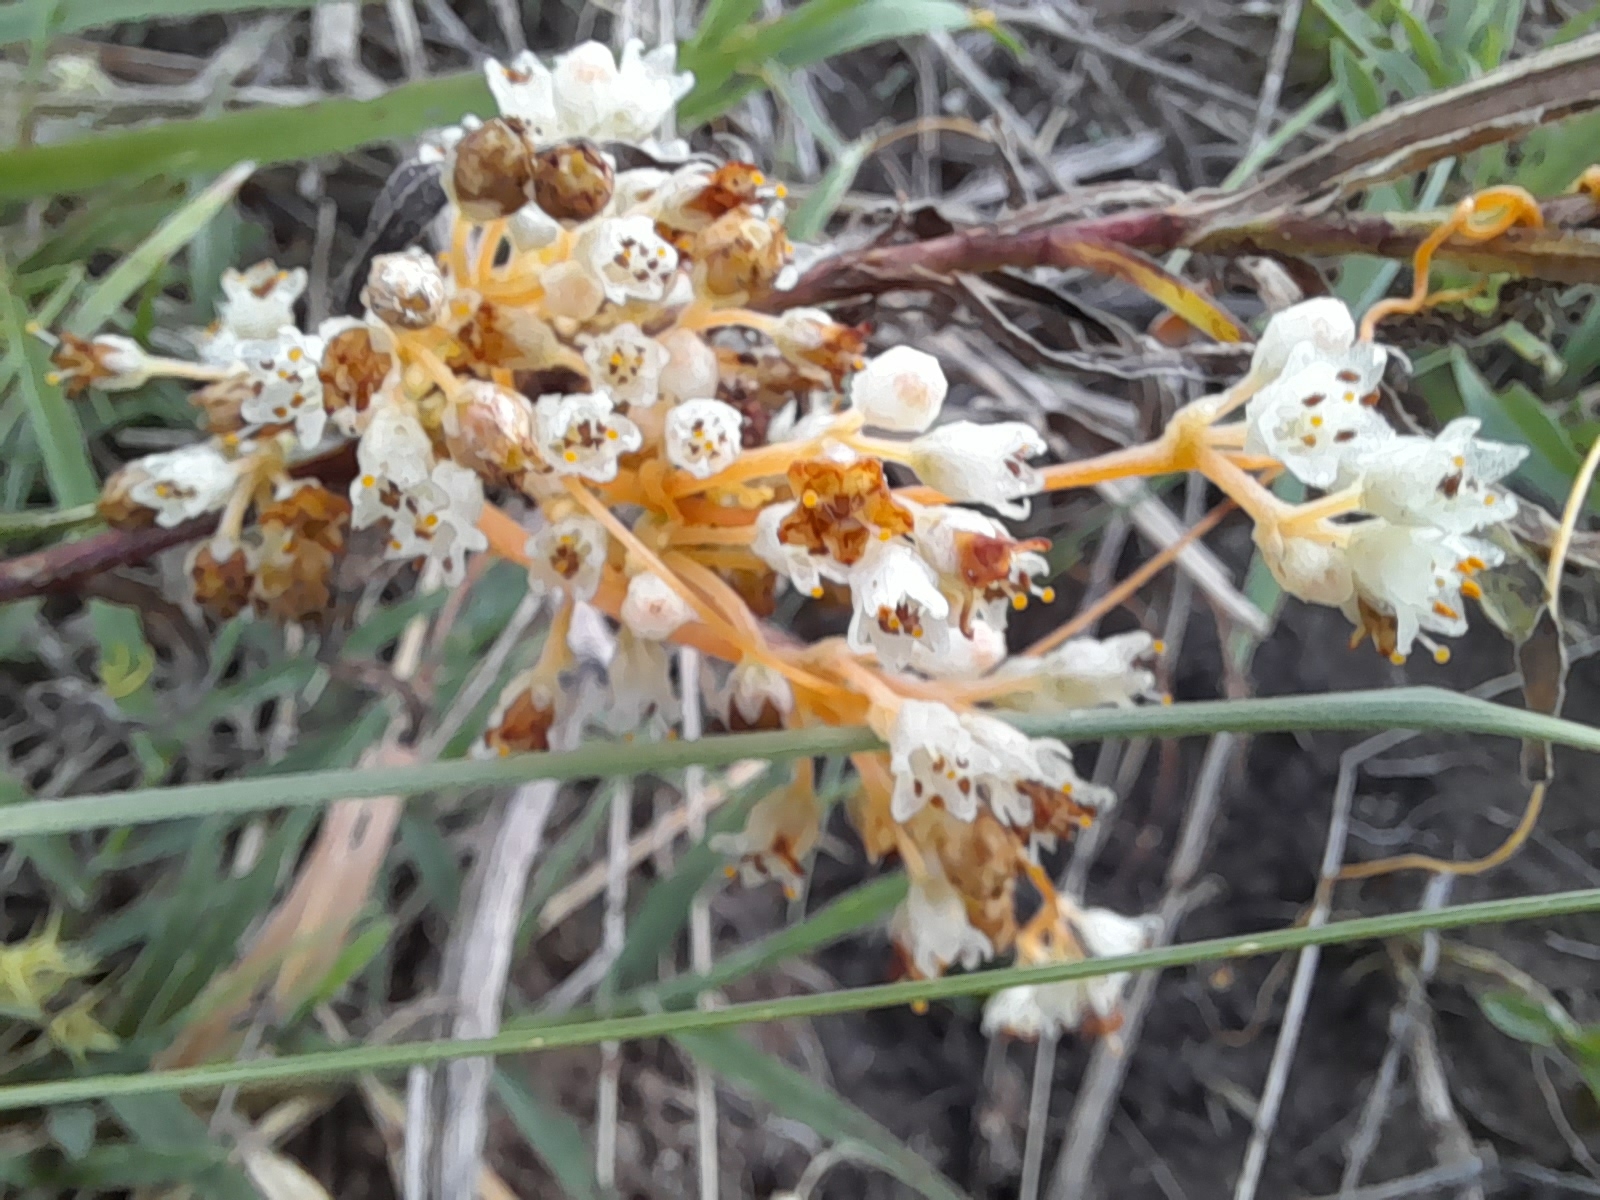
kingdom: Plantae
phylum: Tracheophyta
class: Magnoliopsida
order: Solanales
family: Convolvulaceae
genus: Cuscuta
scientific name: Cuscuta indecora
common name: Large-seed dodder
